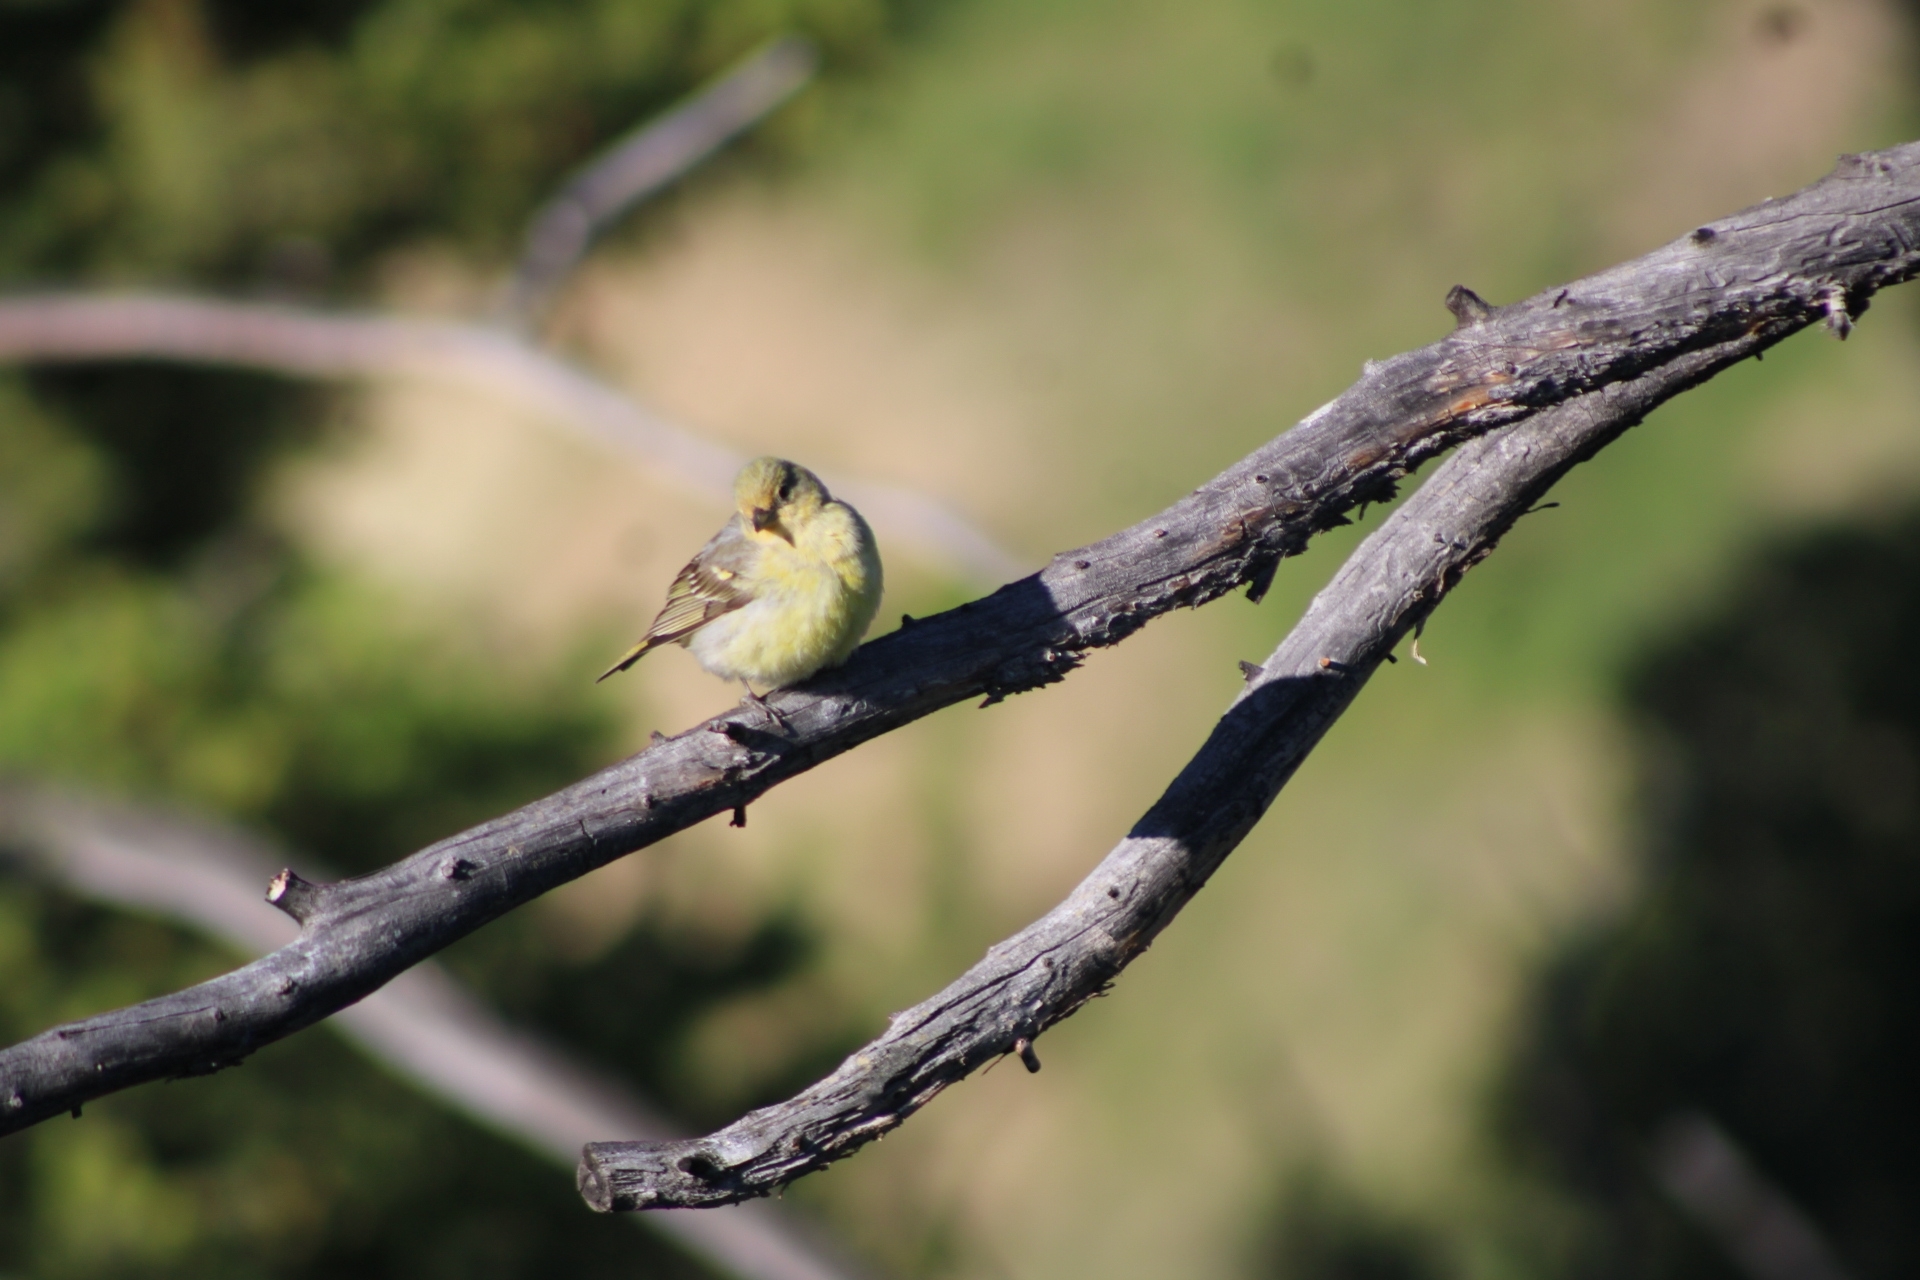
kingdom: Animalia
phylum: Chordata
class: Aves
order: Passeriformes
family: Cardinalidae
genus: Piranga
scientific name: Piranga ludoviciana
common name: Western tanager
